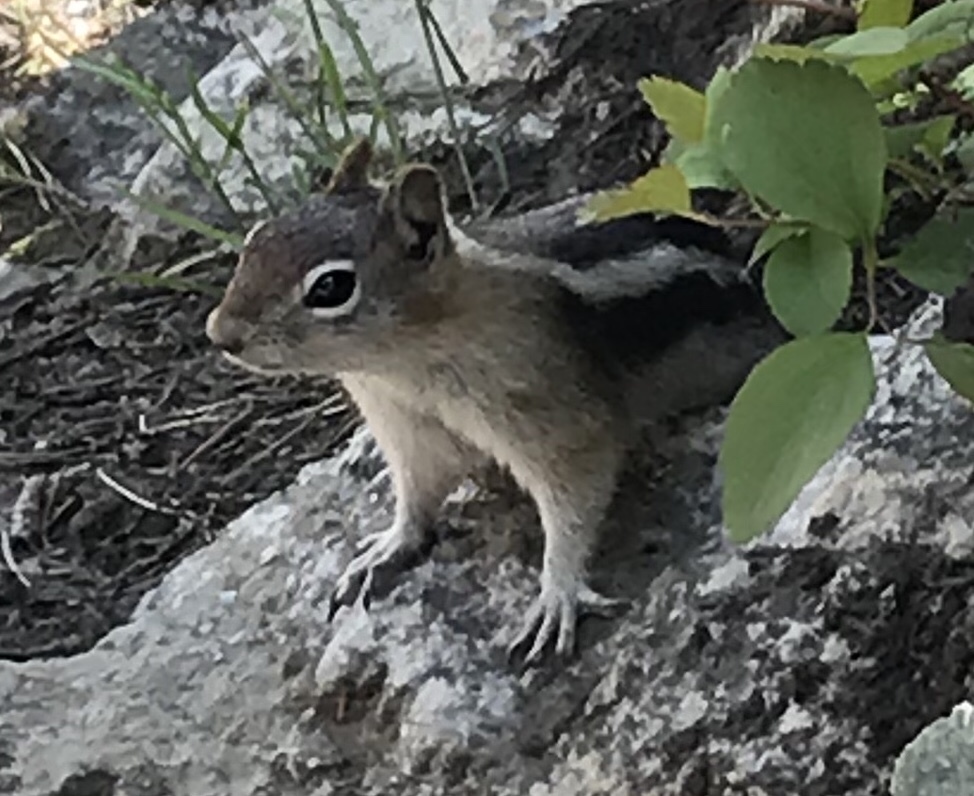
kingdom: Animalia
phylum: Chordata
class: Mammalia
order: Rodentia
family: Sciuridae
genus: Callospermophilus
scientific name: Callospermophilus lateralis
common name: Golden-mantled ground squirrel
